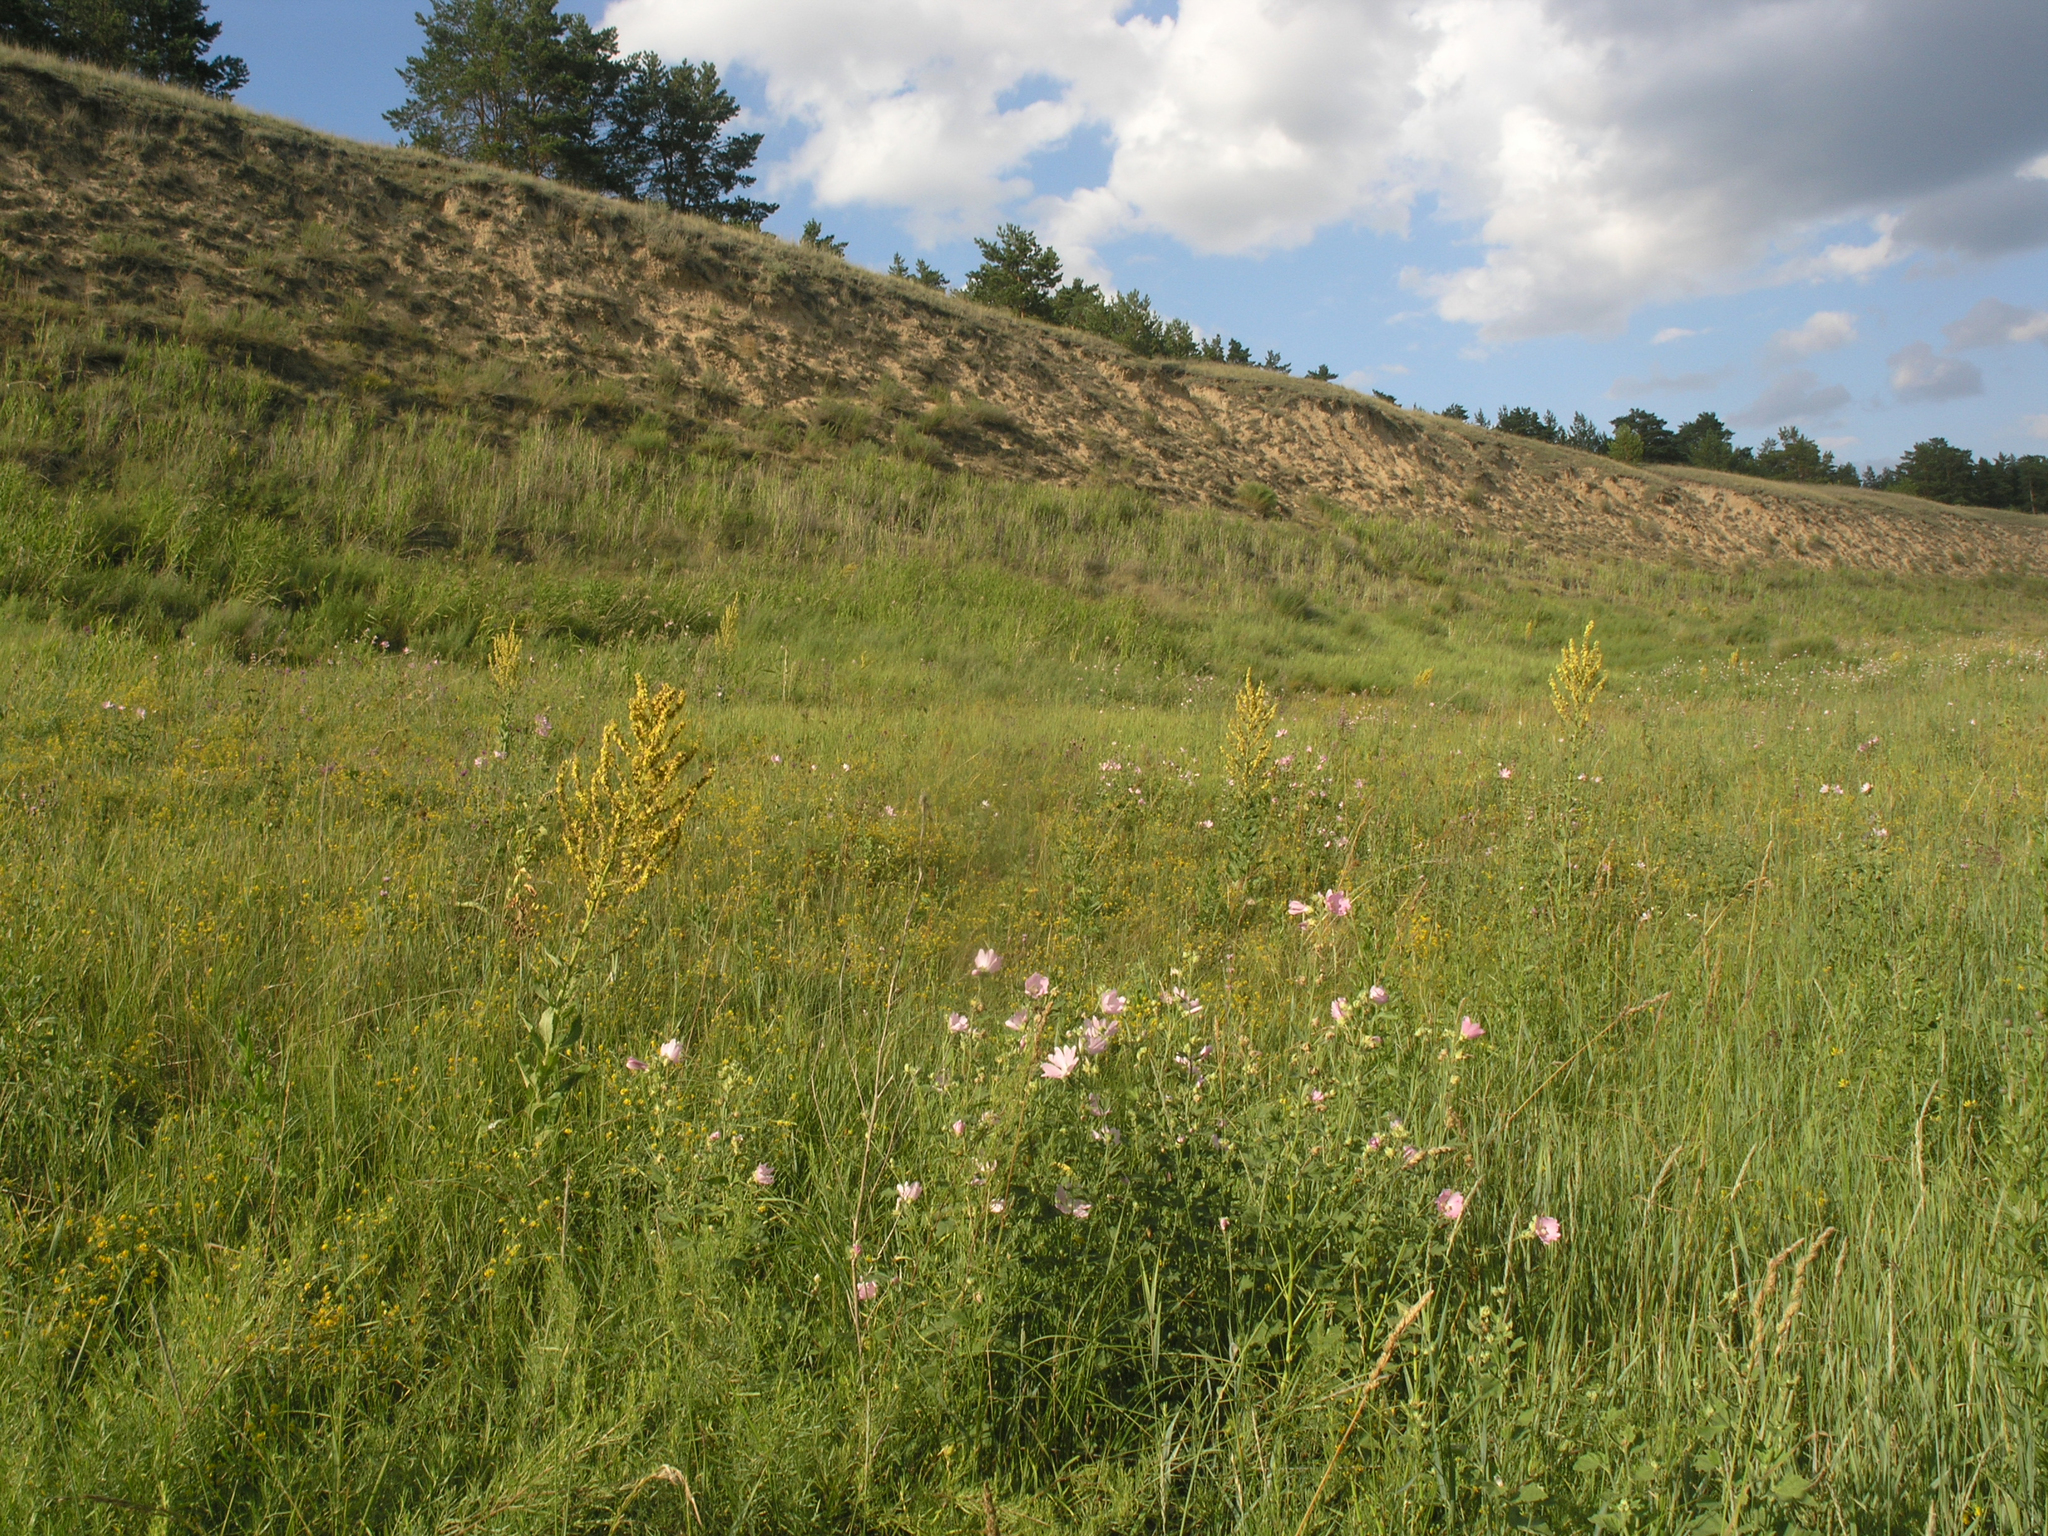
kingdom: Plantae
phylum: Tracheophyta
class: Magnoliopsida
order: Lamiales
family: Scrophulariaceae
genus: Verbascum
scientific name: Verbascum lychnitis
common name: White mullein
